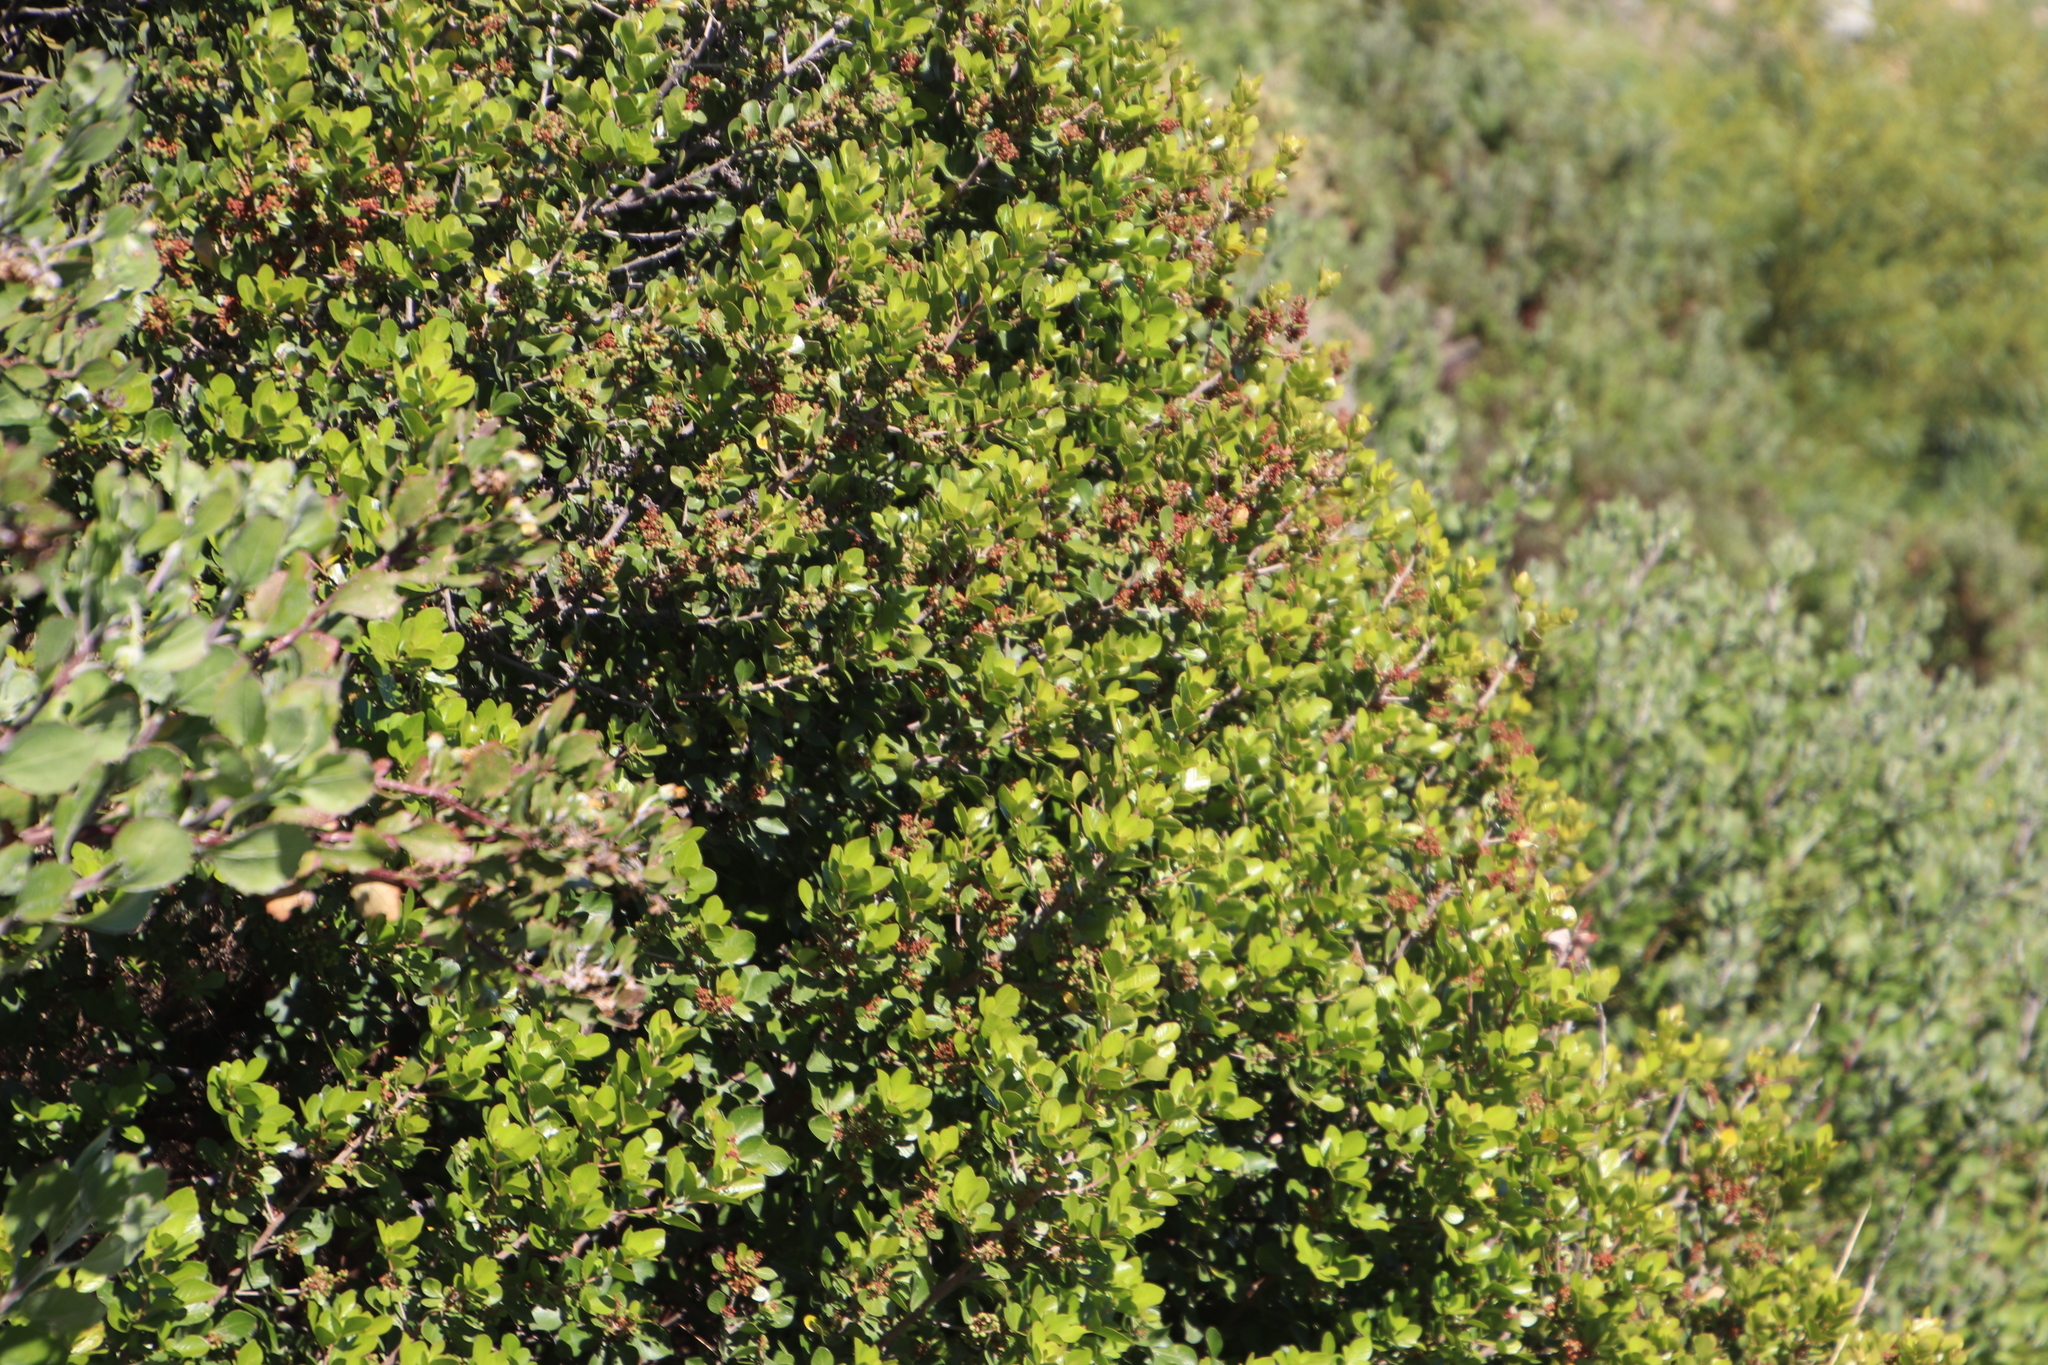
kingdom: Plantae
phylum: Tracheophyta
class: Magnoliopsida
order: Sapindales
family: Anacardiaceae
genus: Searsia
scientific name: Searsia lucida
